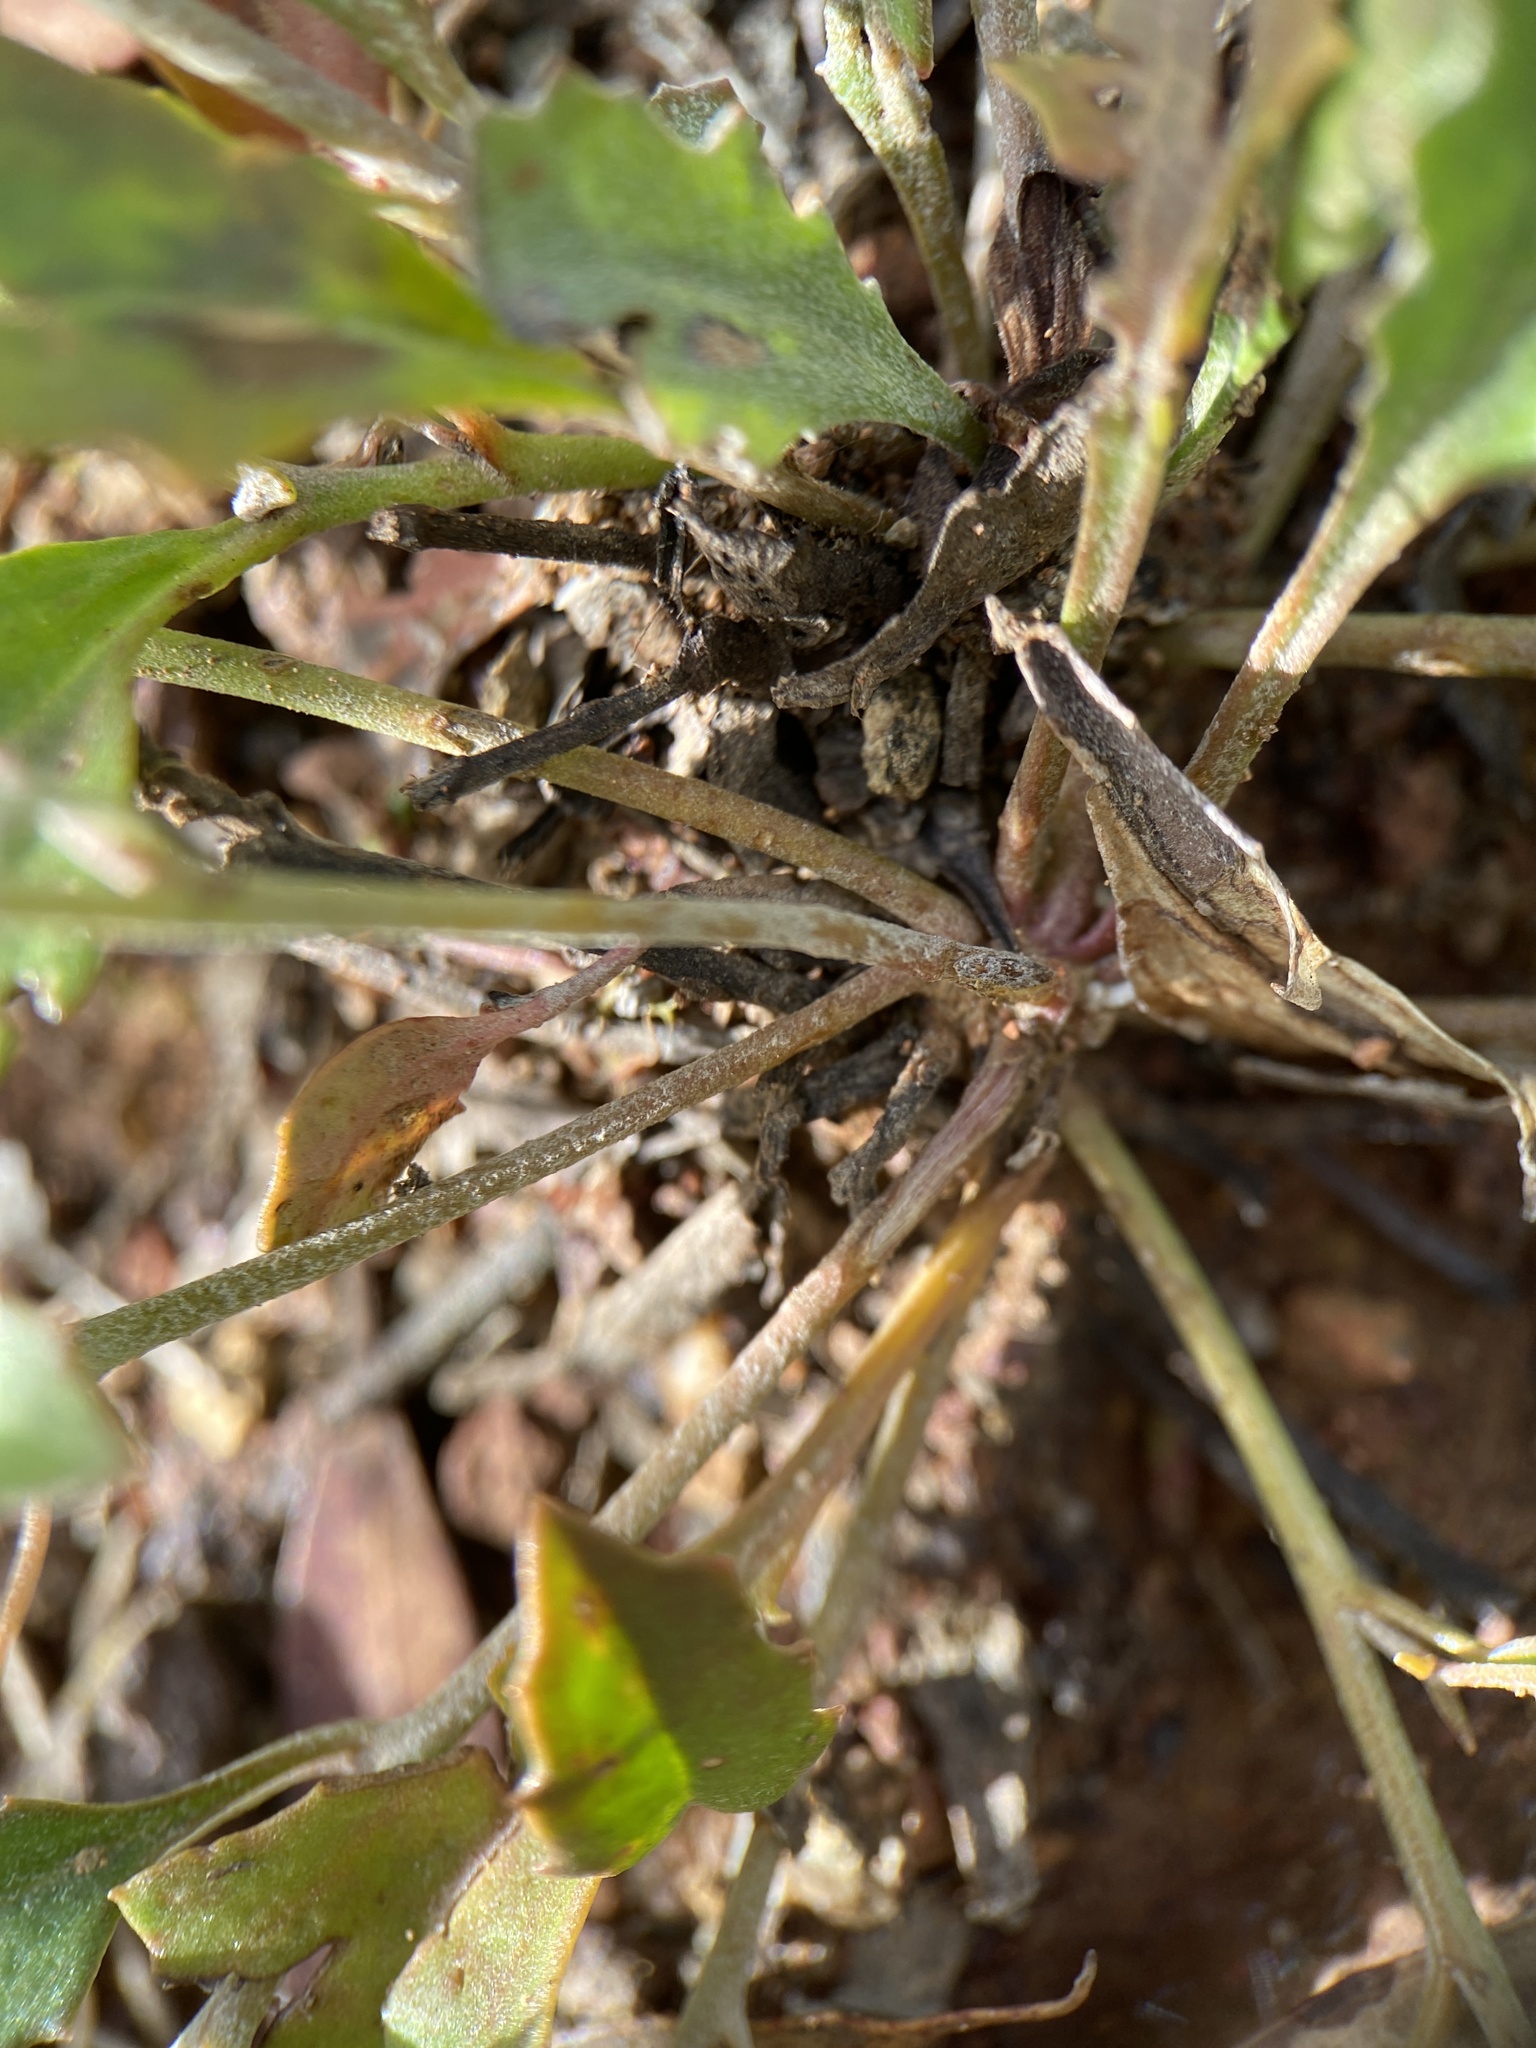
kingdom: Plantae
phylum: Tracheophyta
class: Magnoliopsida
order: Asterales
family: Goodeniaceae
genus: Goodenia
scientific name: Goodenia hederacea
